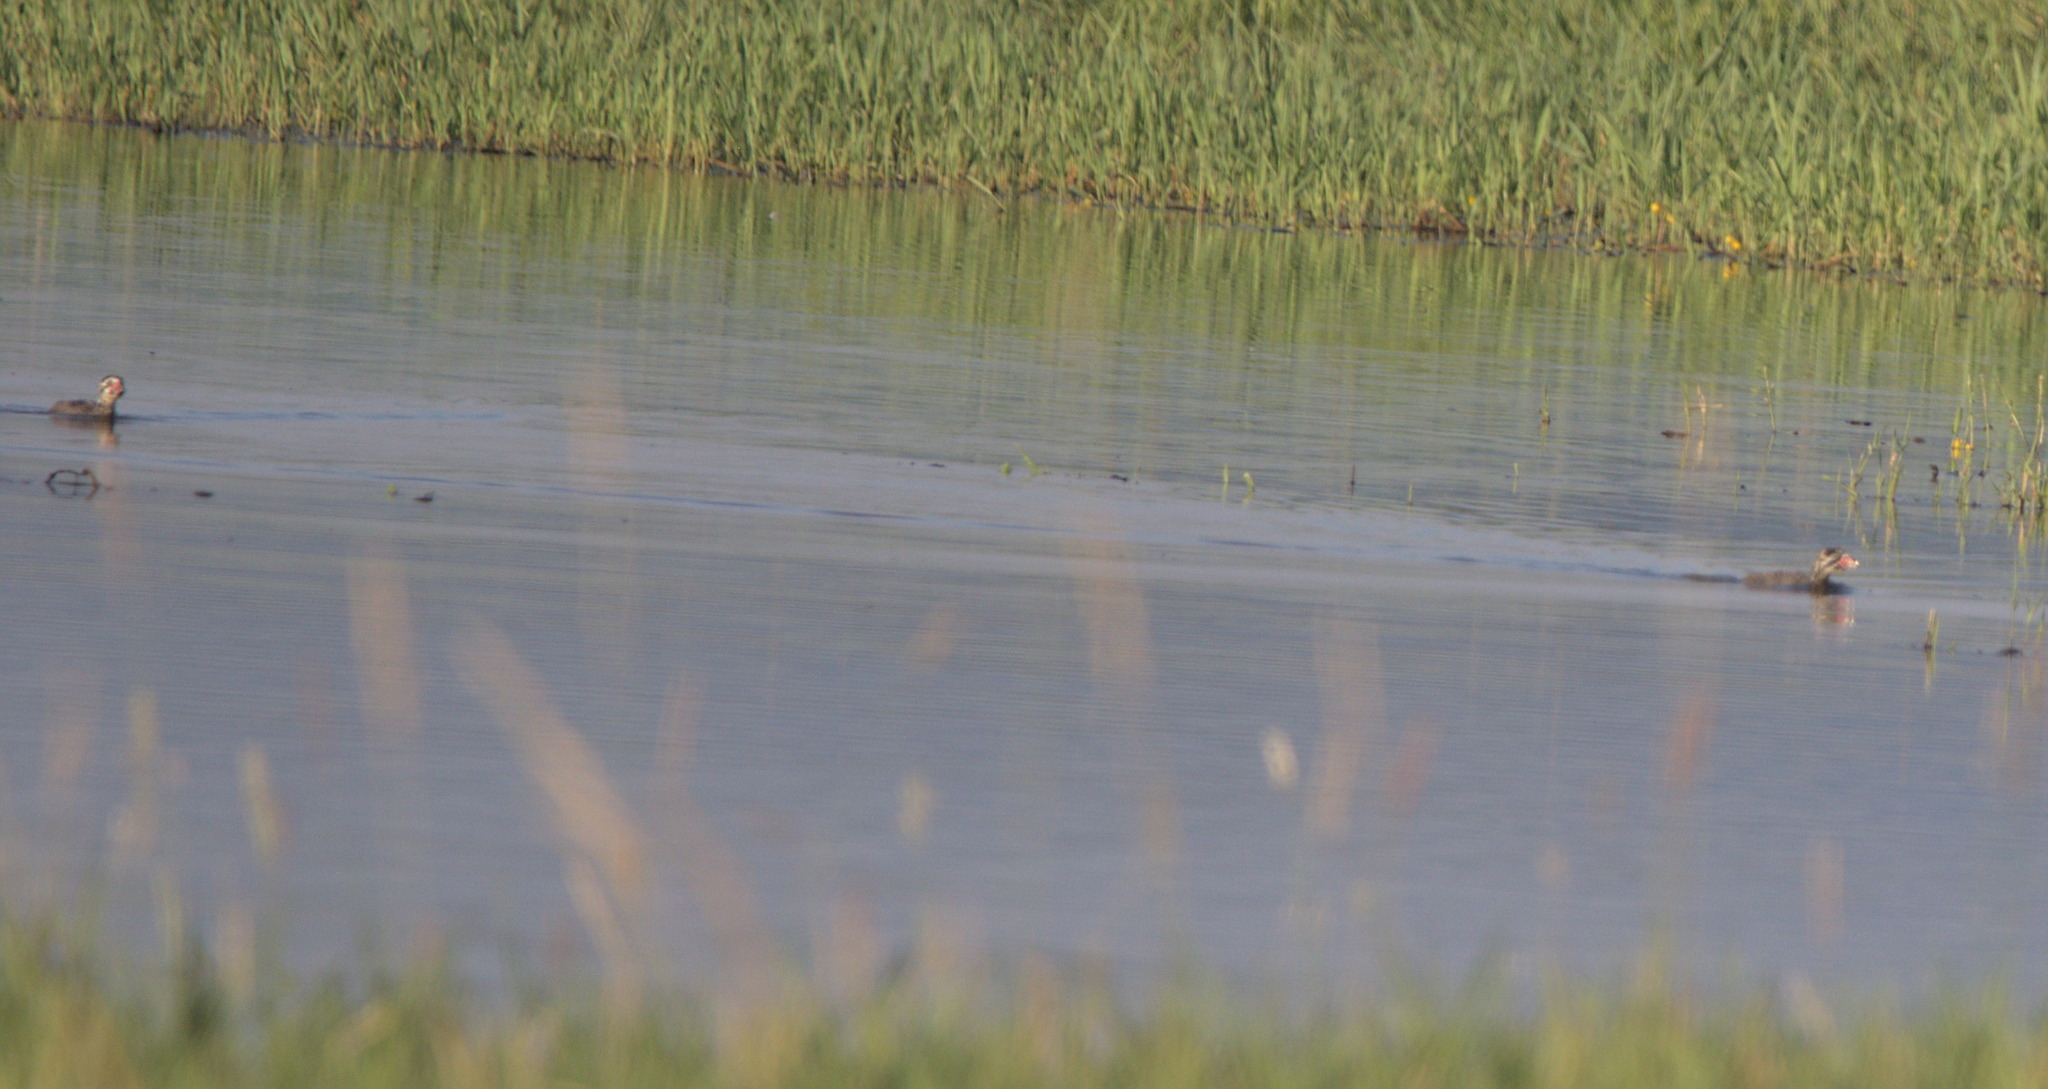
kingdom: Animalia
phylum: Chordata
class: Aves
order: Podicipediformes
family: Podicipedidae
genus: Podilymbus
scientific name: Podilymbus podiceps
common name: Pied-billed grebe
